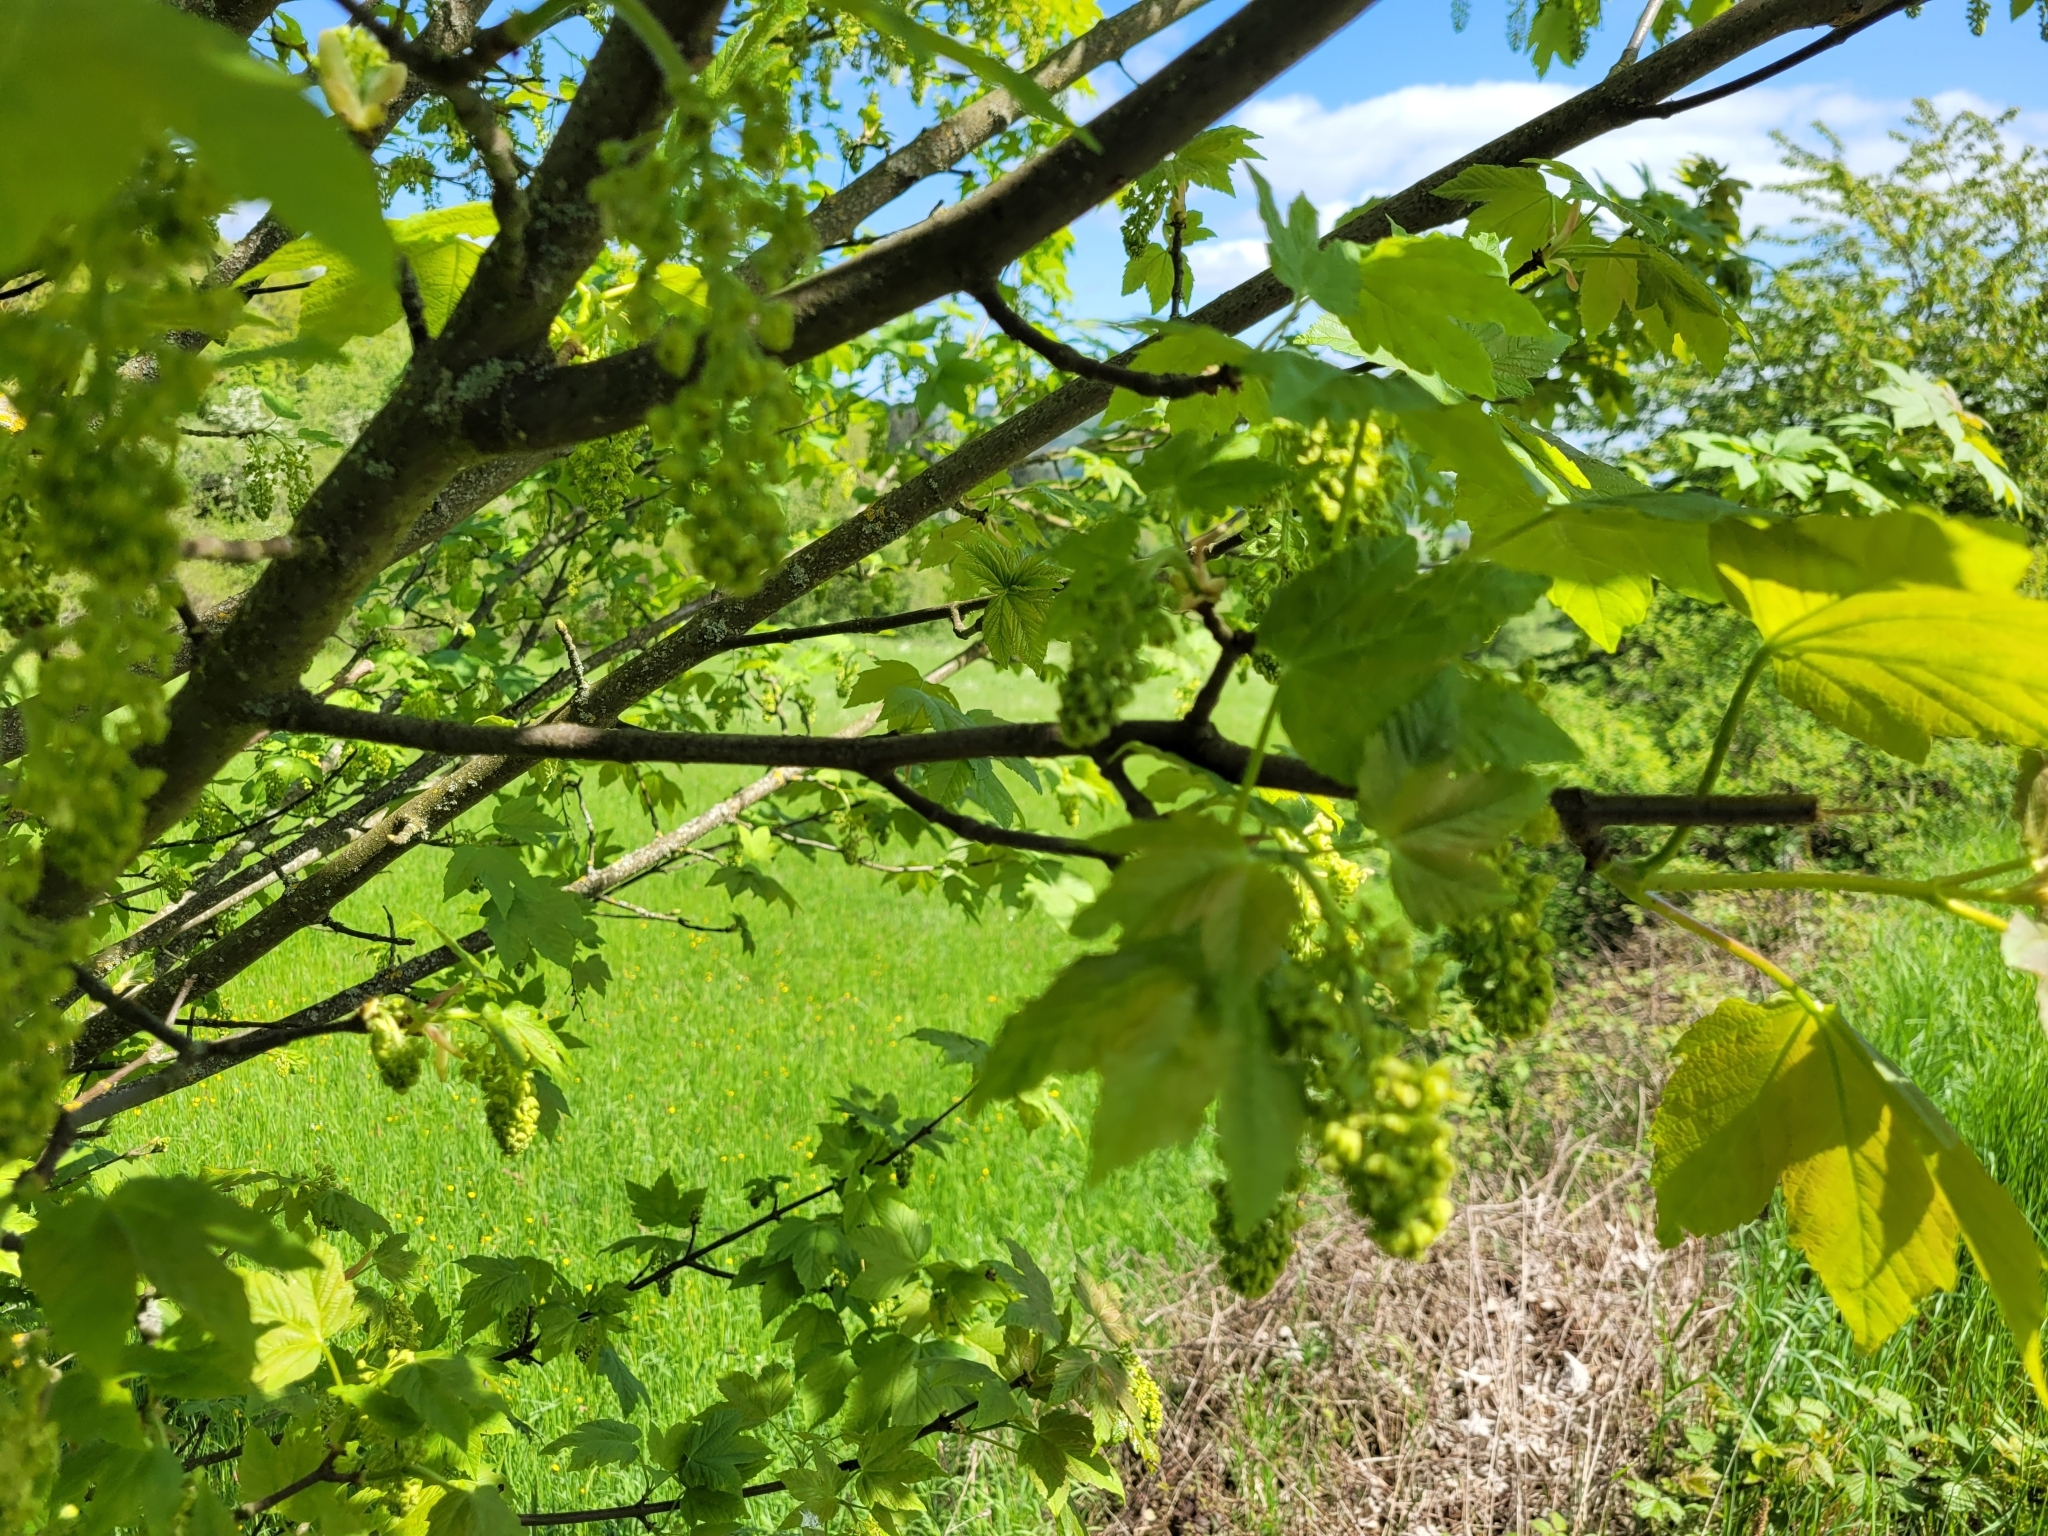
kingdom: Plantae
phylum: Tracheophyta
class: Magnoliopsida
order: Sapindales
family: Sapindaceae
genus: Acer
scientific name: Acer pseudoplatanus
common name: Sycamore
